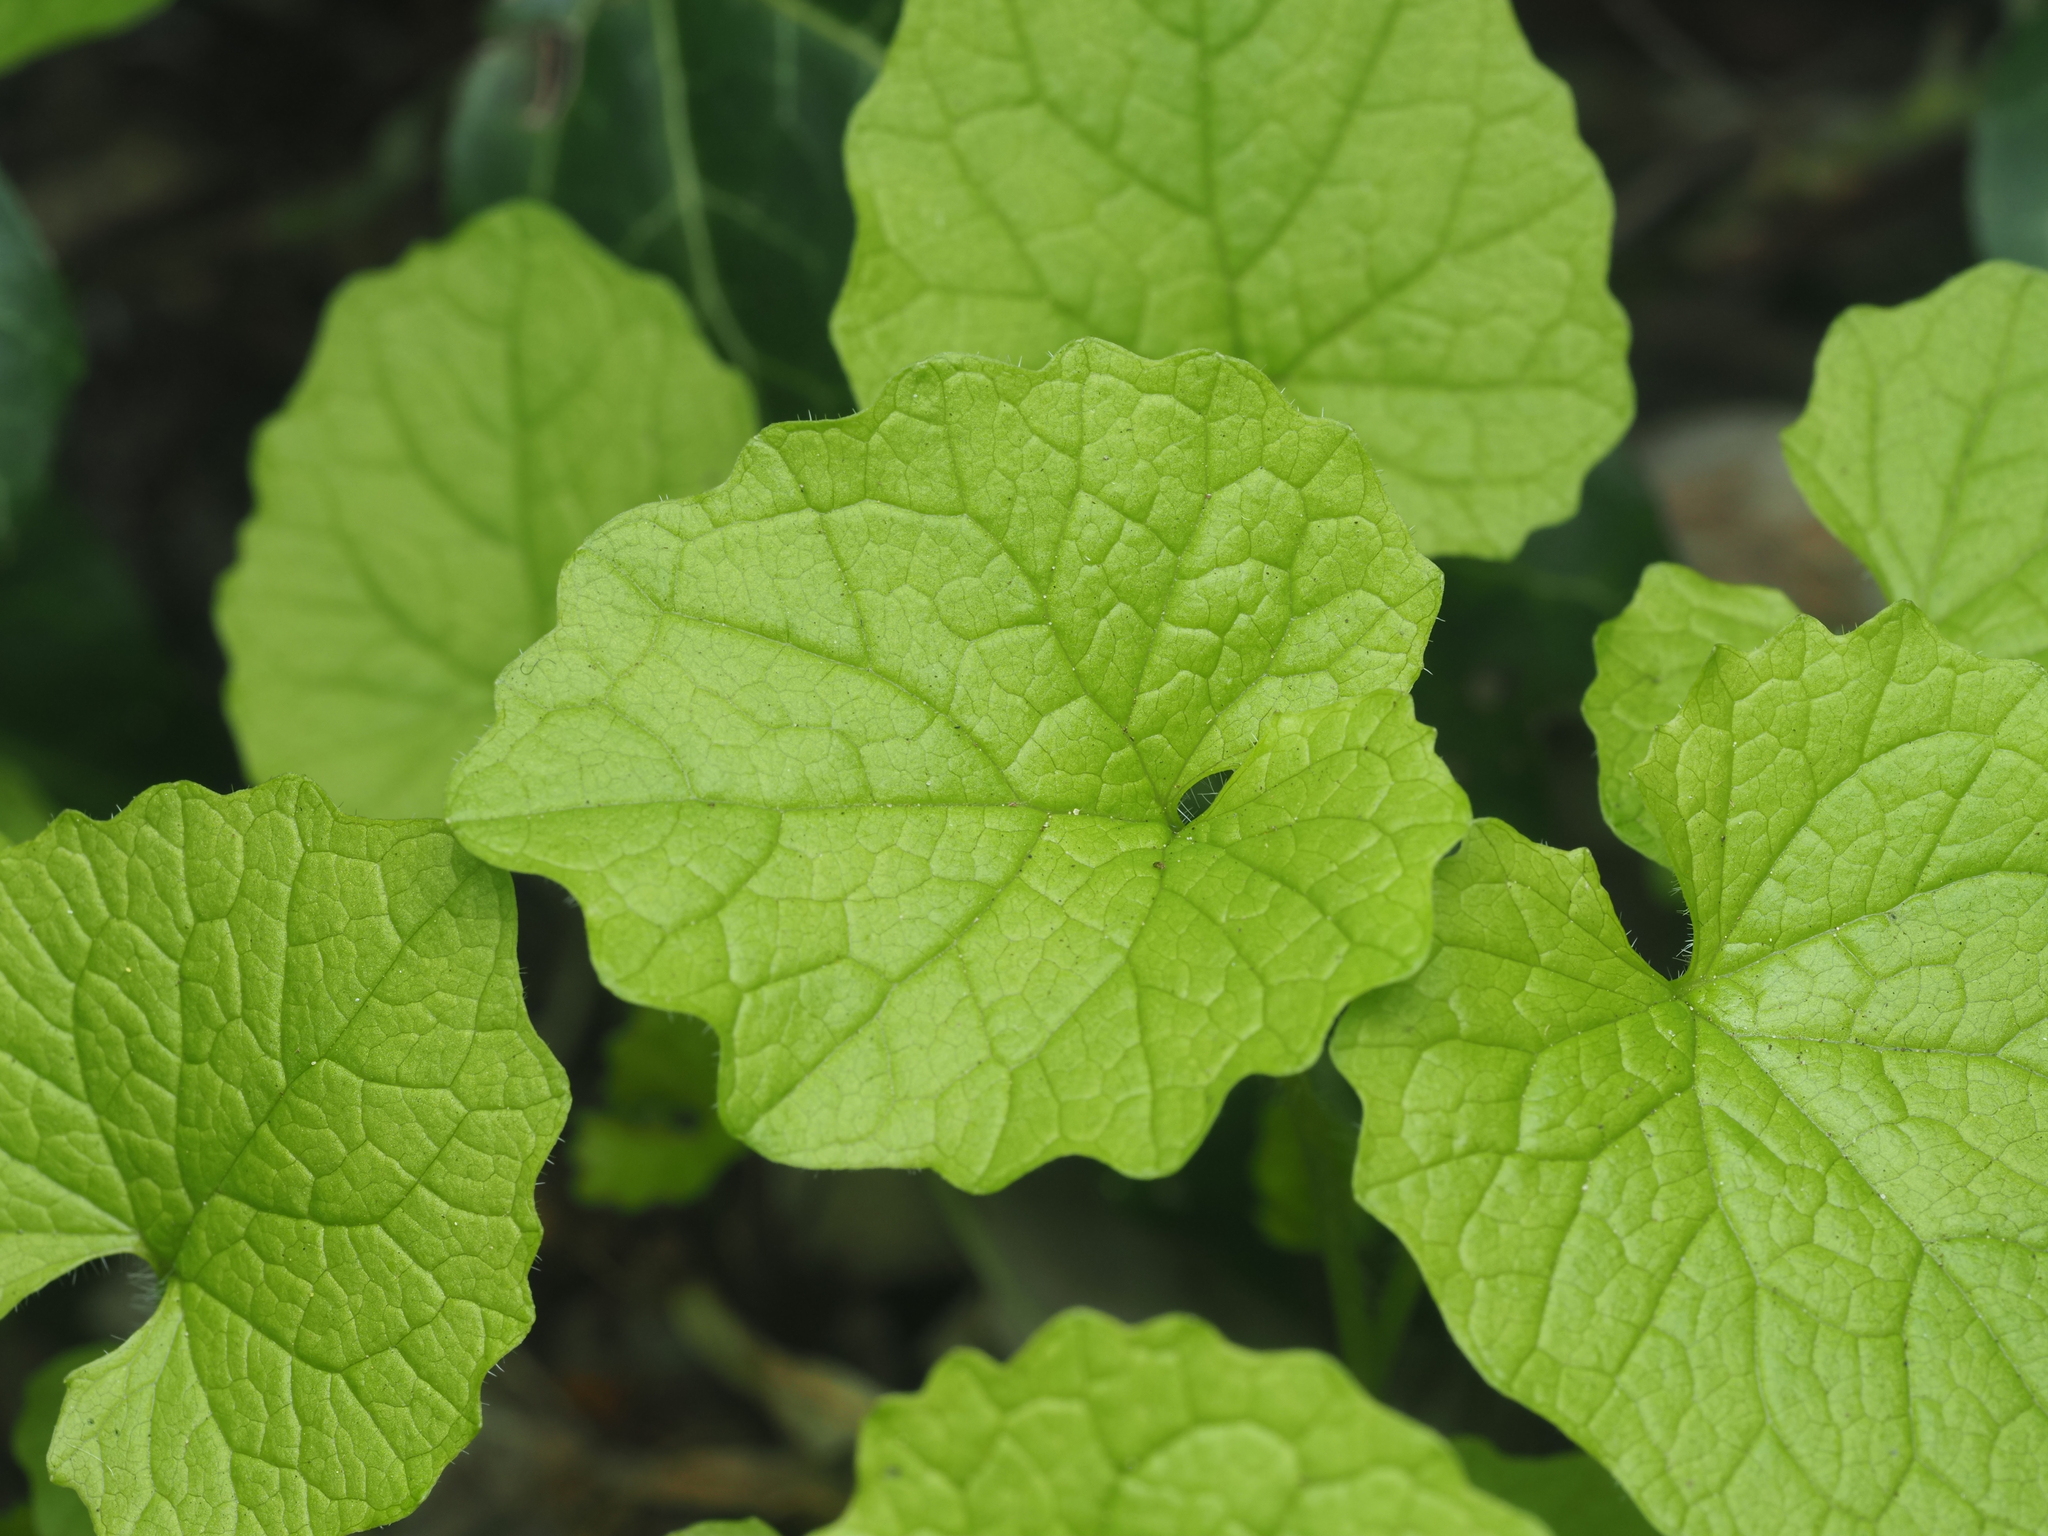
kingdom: Plantae
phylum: Tracheophyta
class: Magnoliopsida
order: Brassicales
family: Brassicaceae
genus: Alliaria
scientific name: Alliaria petiolata
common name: Garlic mustard
